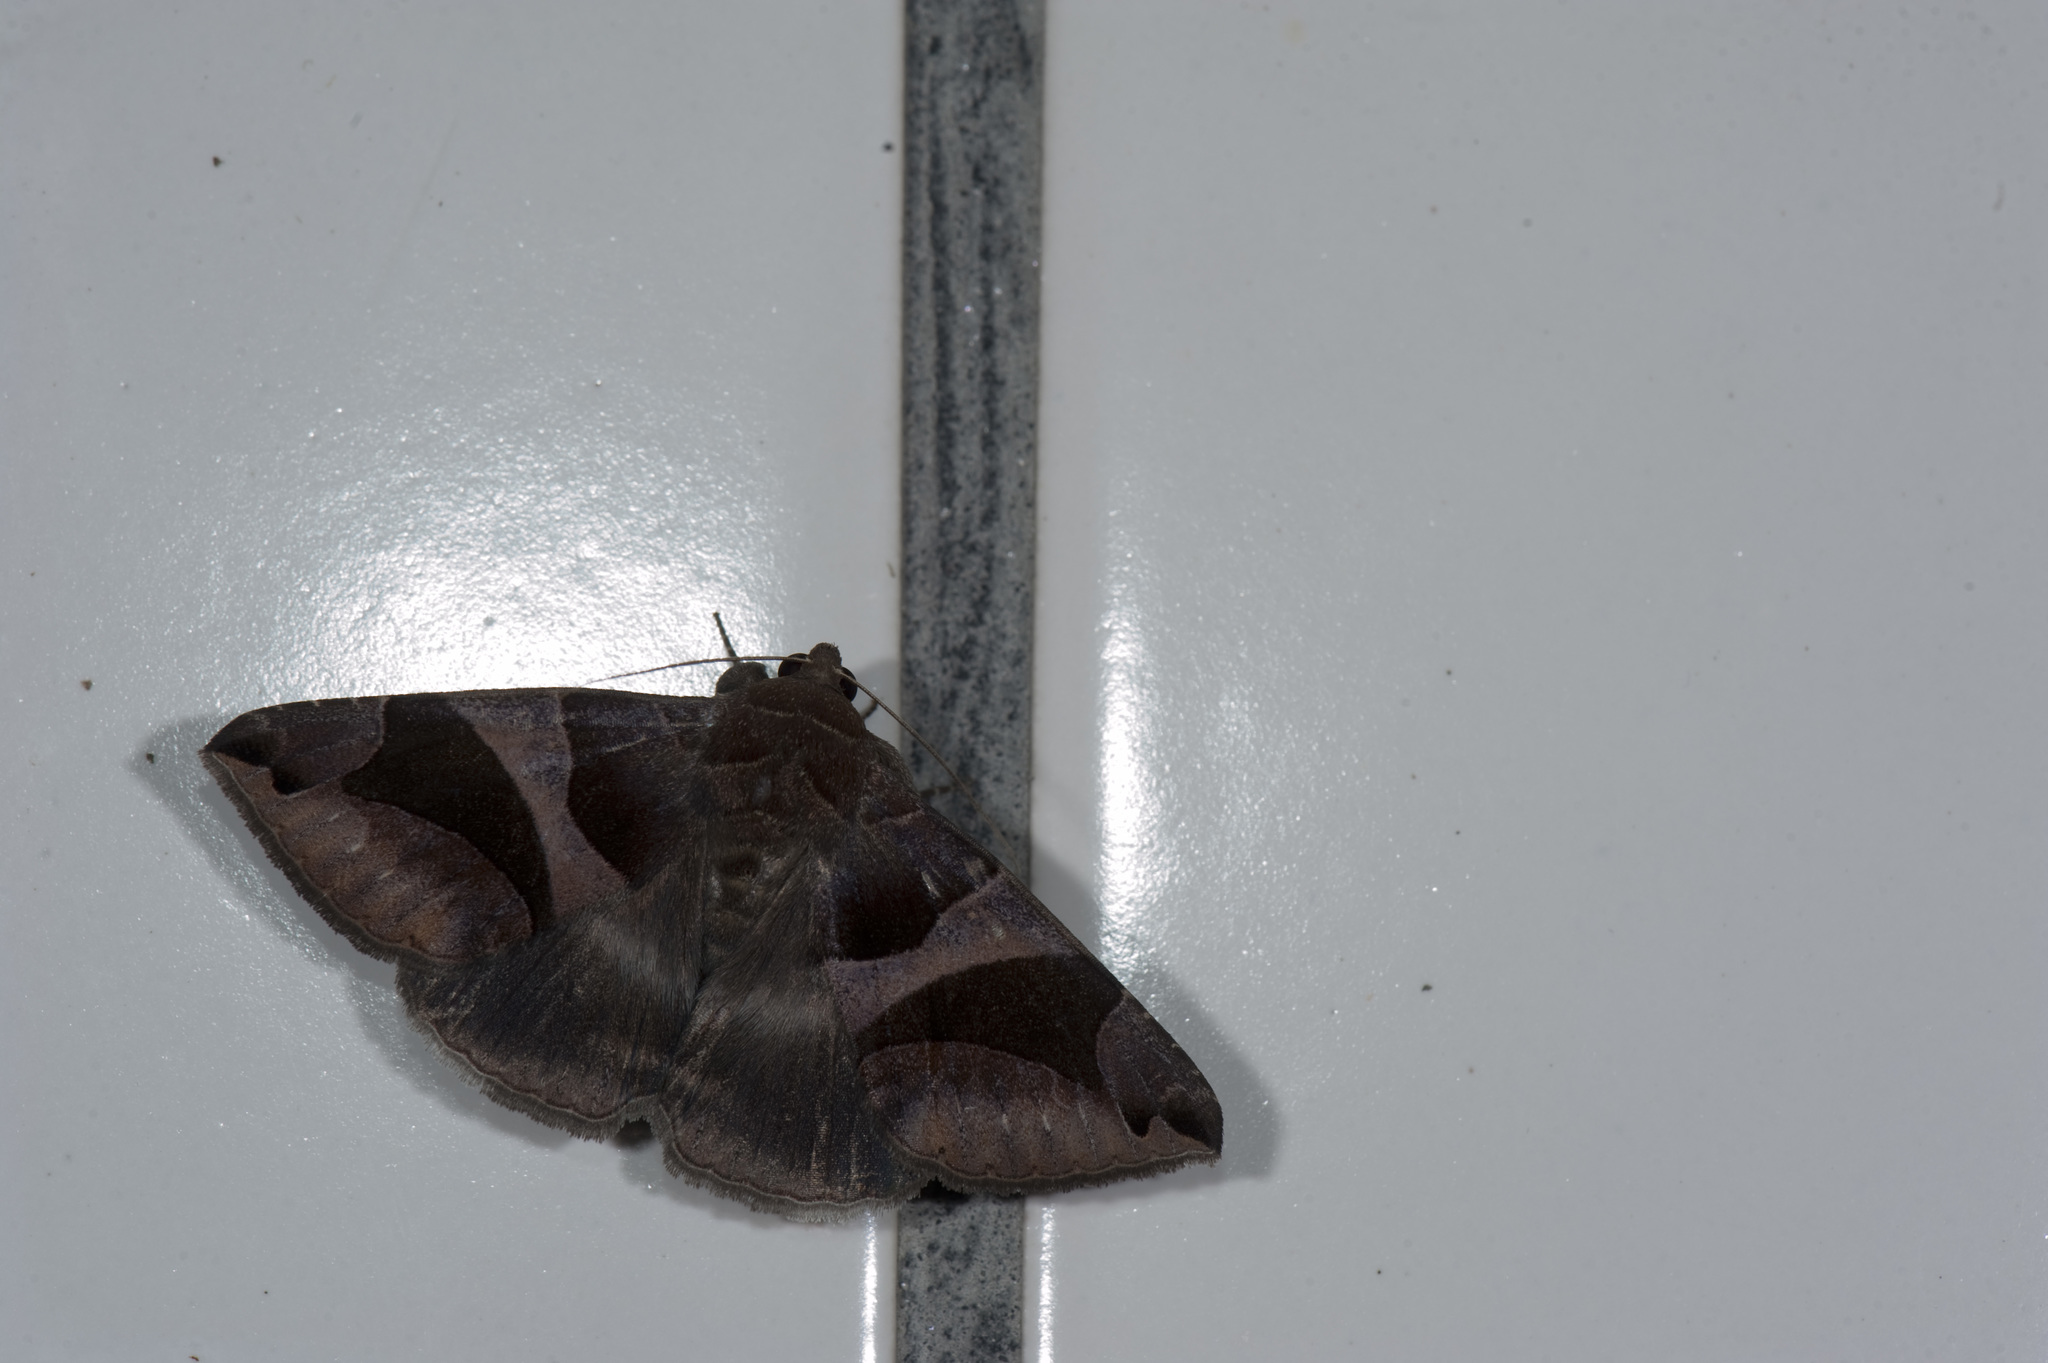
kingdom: Animalia
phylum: Arthropoda
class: Insecta
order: Lepidoptera
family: Erebidae
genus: Bastilla
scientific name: Bastilla arcuata
